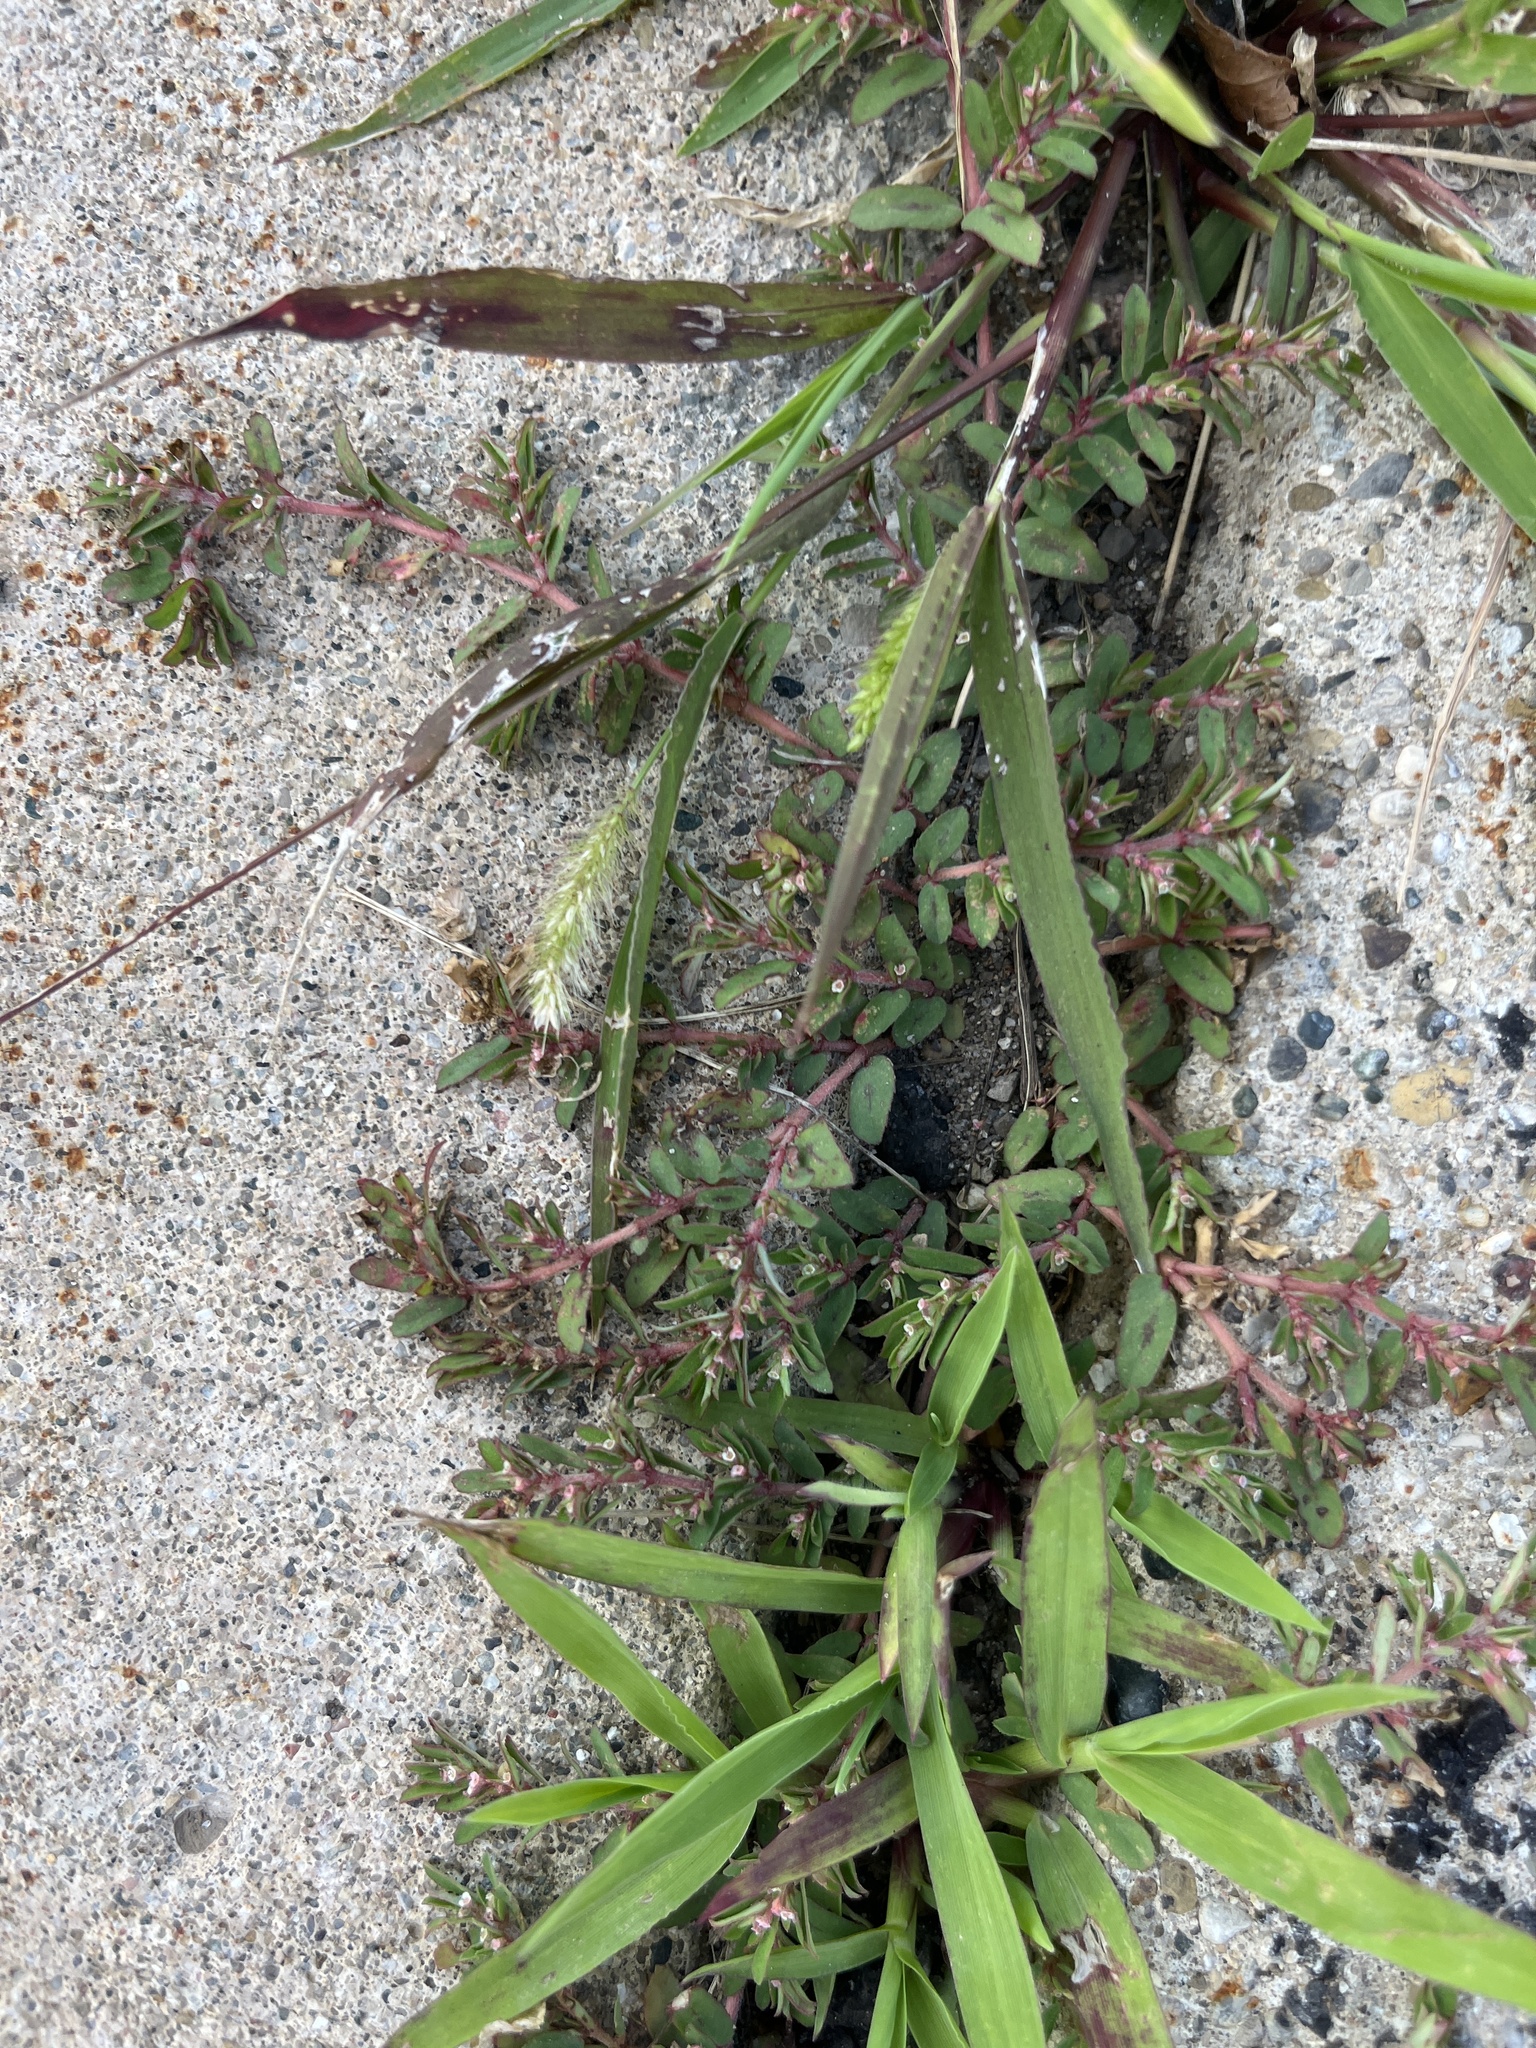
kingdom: Plantae
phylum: Tracheophyta
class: Magnoliopsida
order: Malpighiales
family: Euphorbiaceae
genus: Euphorbia
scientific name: Euphorbia maculata
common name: Spotted spurge
